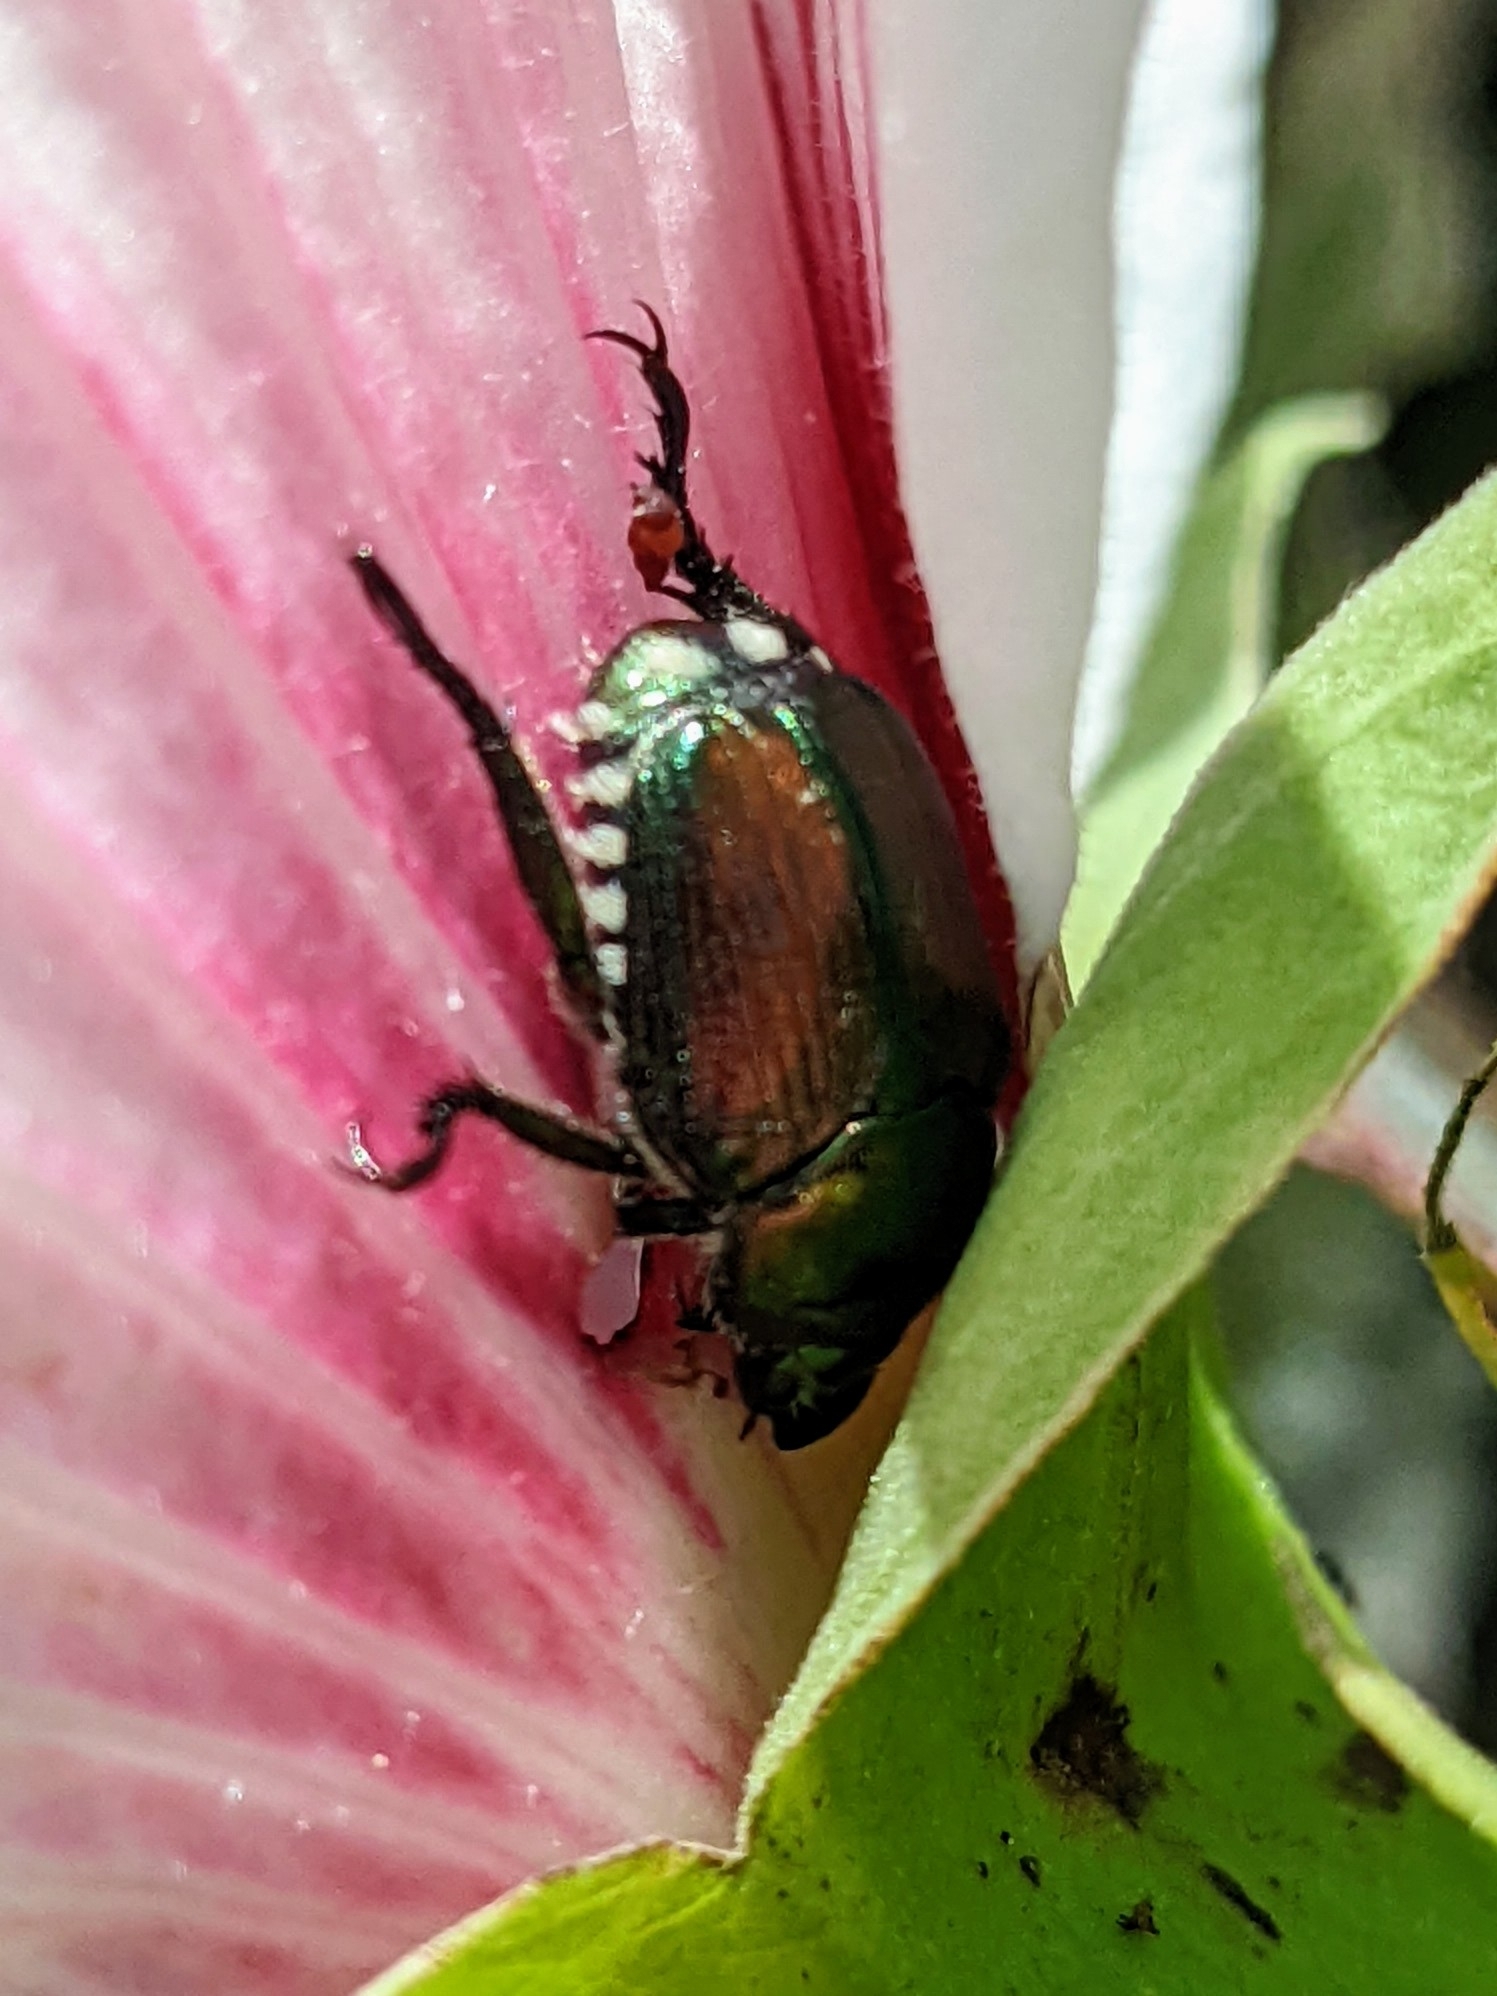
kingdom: Animalia
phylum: Arthropoda
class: Insecta
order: Coleoptera
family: Scarabaeidae
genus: Popillia
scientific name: Popillia japonica
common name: Japanese beetle
